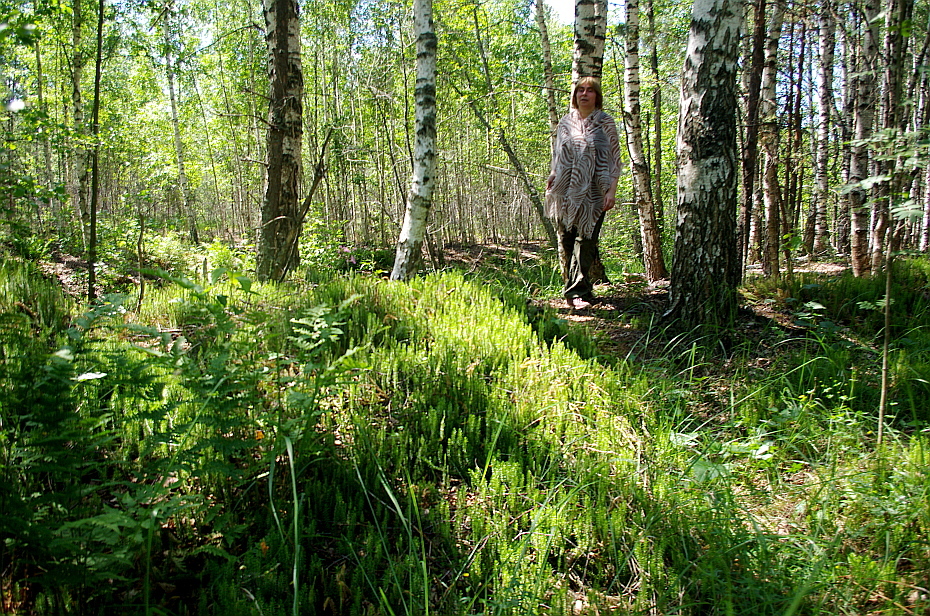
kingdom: Plantae
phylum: Tracheophyta
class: Lycopodiopsida
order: Lycopodiales
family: Lycopodiaceae
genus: Spinulum
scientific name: Spinulum annotinum
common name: Interrupted club-moss
